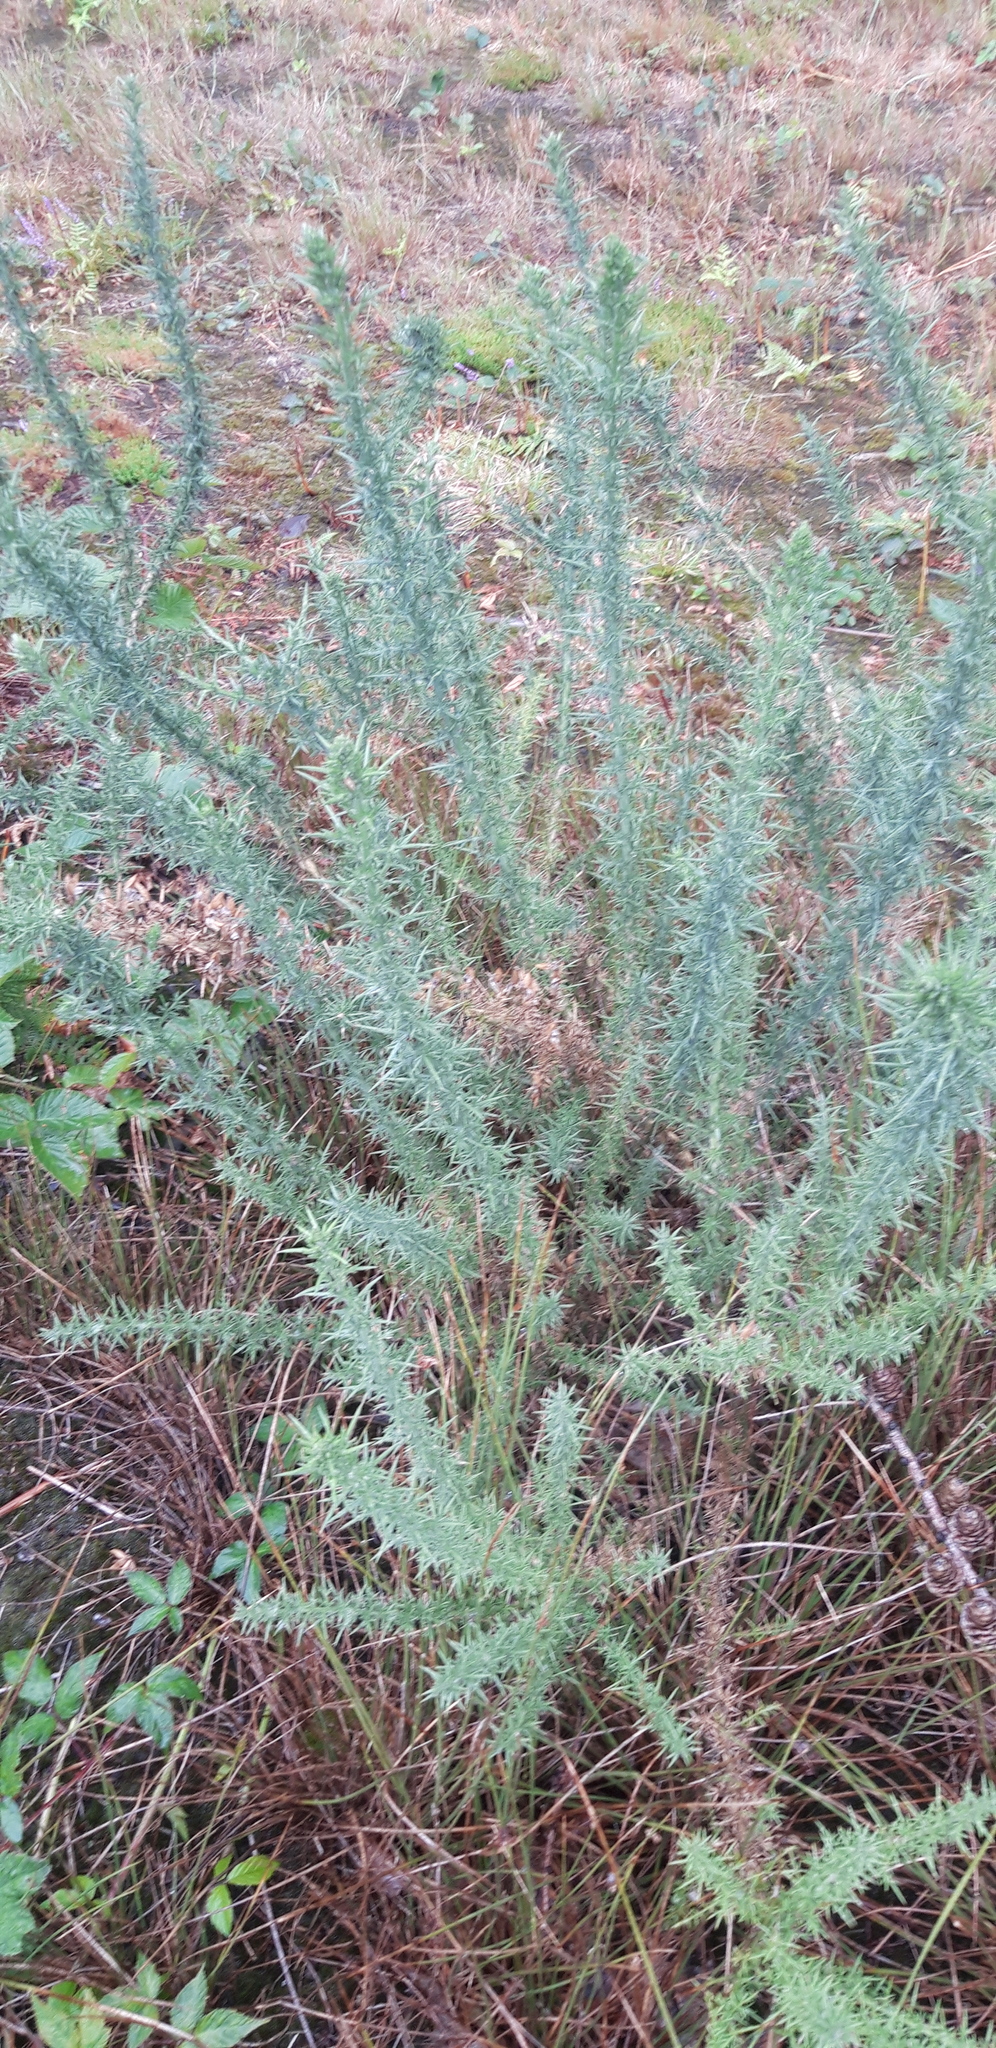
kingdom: Plantae
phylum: Tracheophyta
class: Magnoliopsida
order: Fabales
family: Fabaceae
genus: Ulex
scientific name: Ulex europaeus
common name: Common gorse
